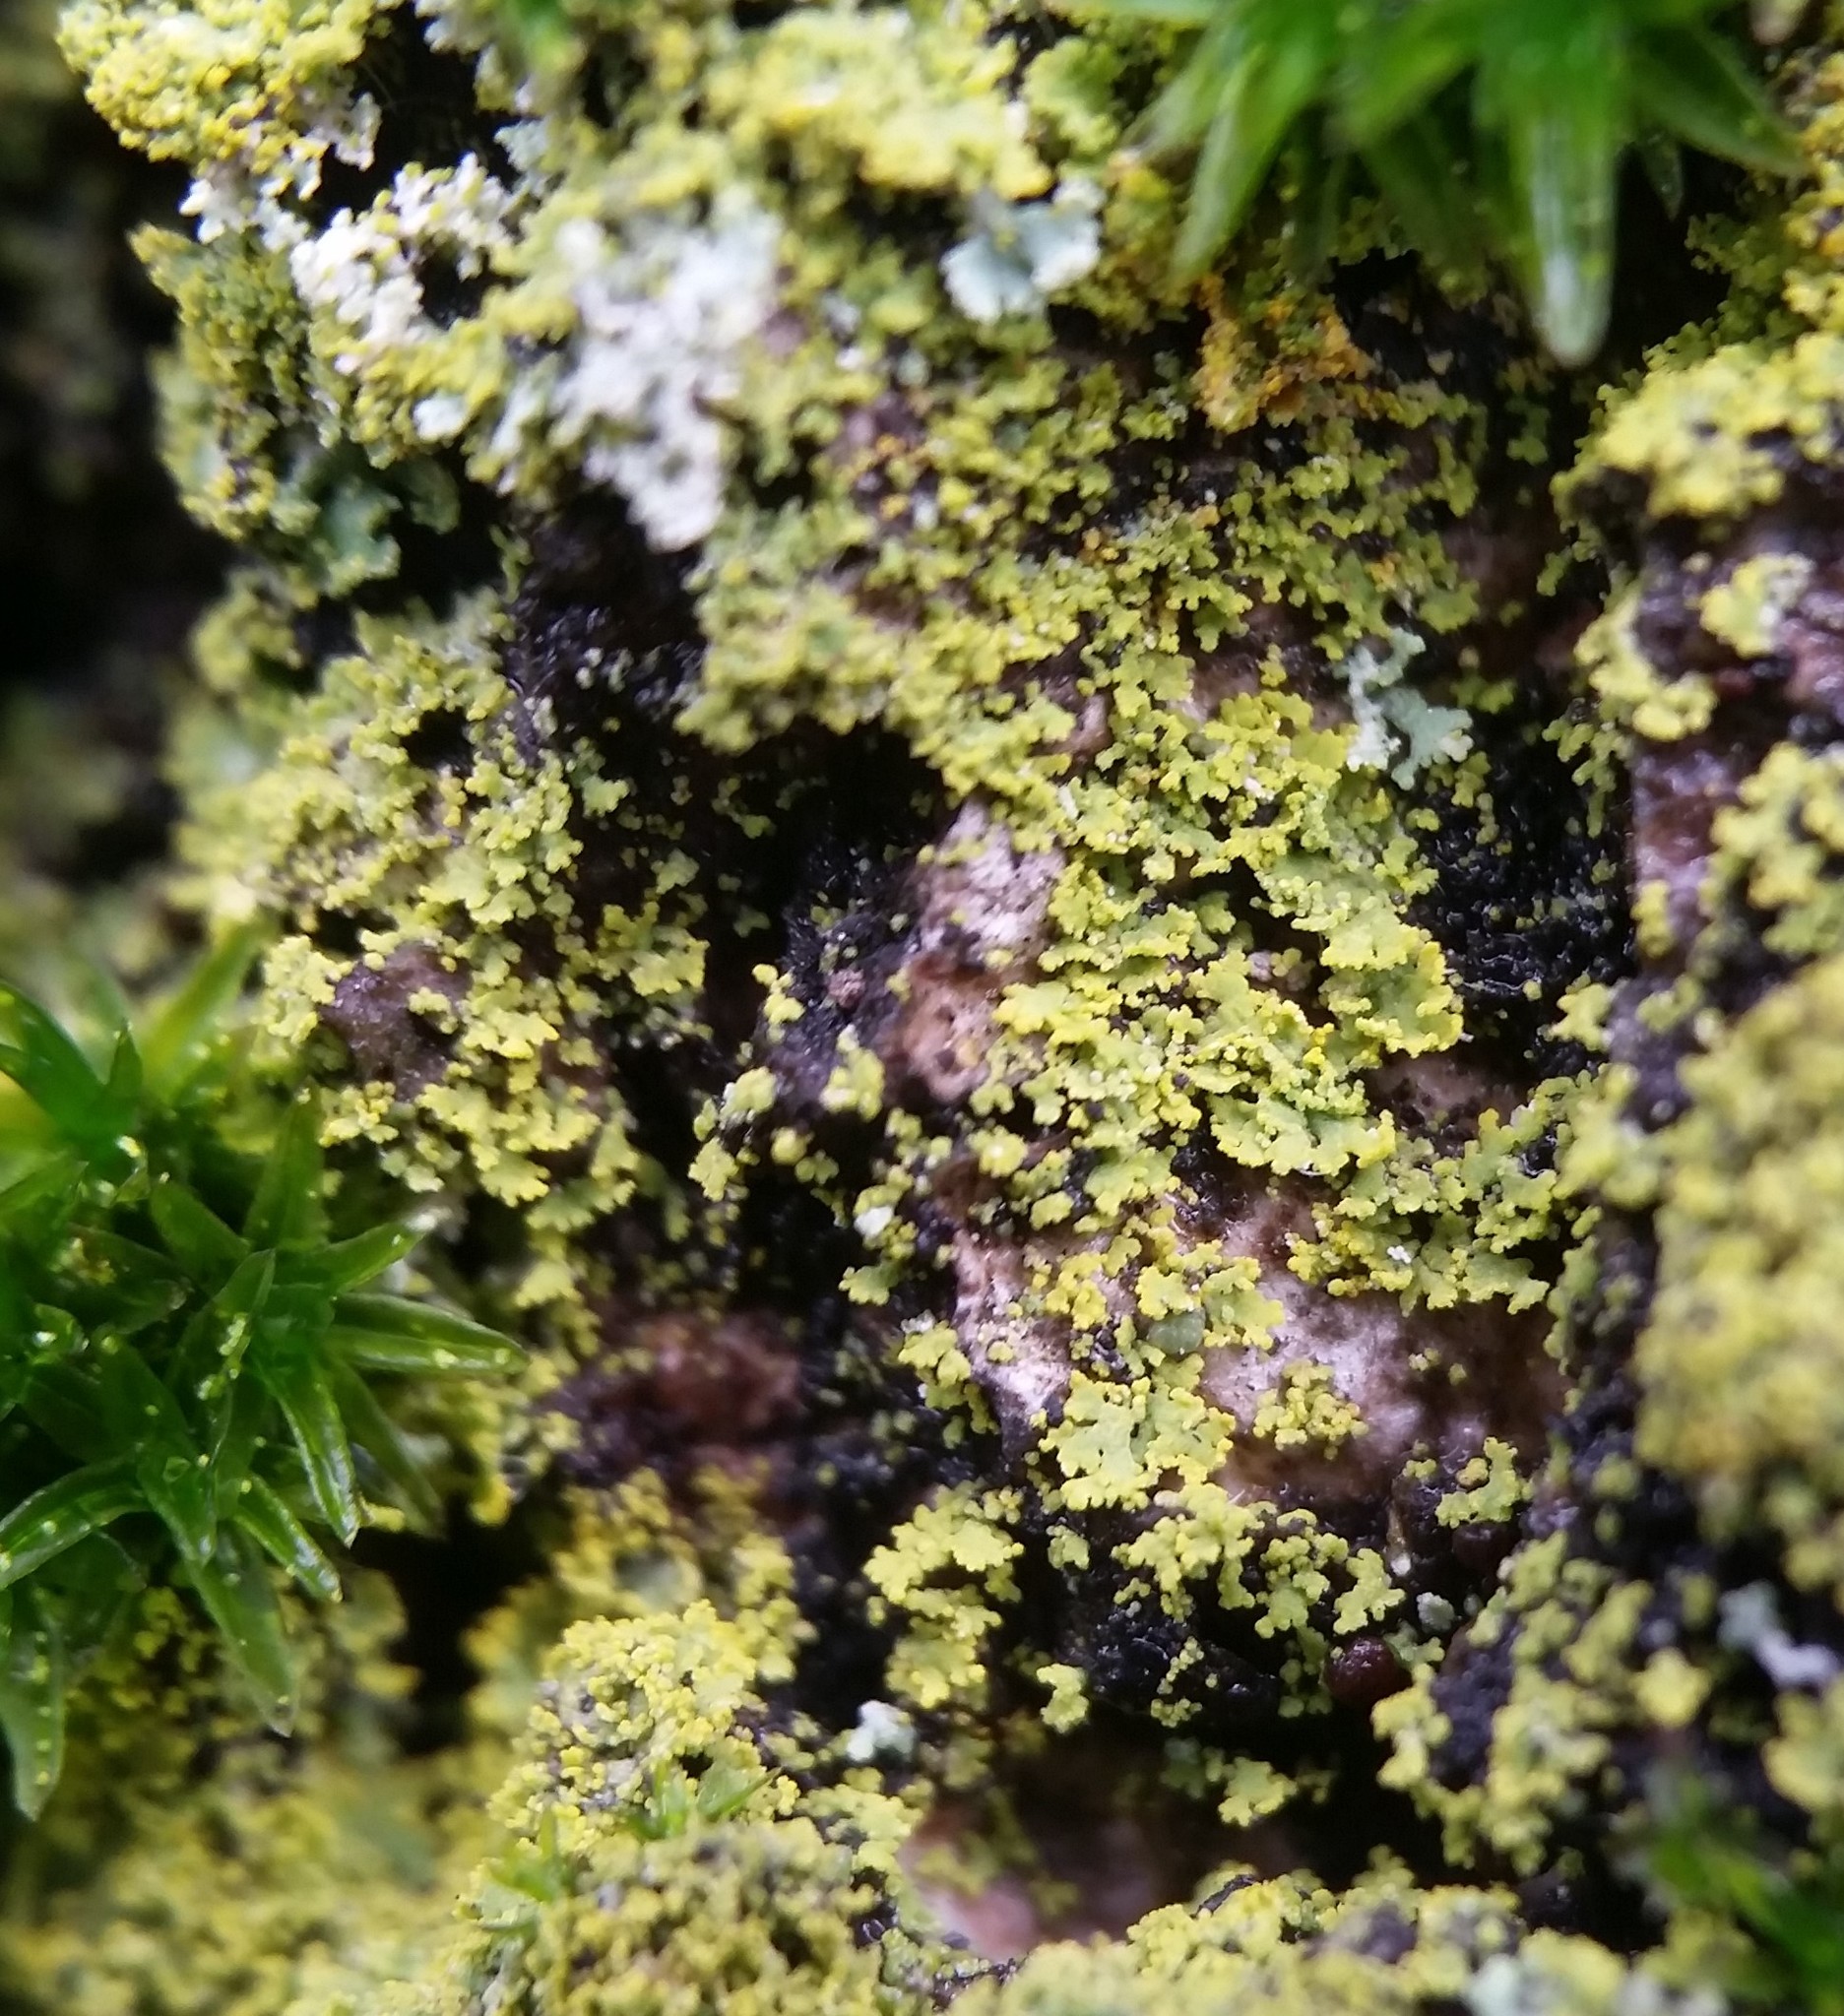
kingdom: Fungi
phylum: Ascomycota
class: Candelariomycetes
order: Candelariales
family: Candelariaceae
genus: Candelaria
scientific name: Candelaria concolor
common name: Candleflame lichen
